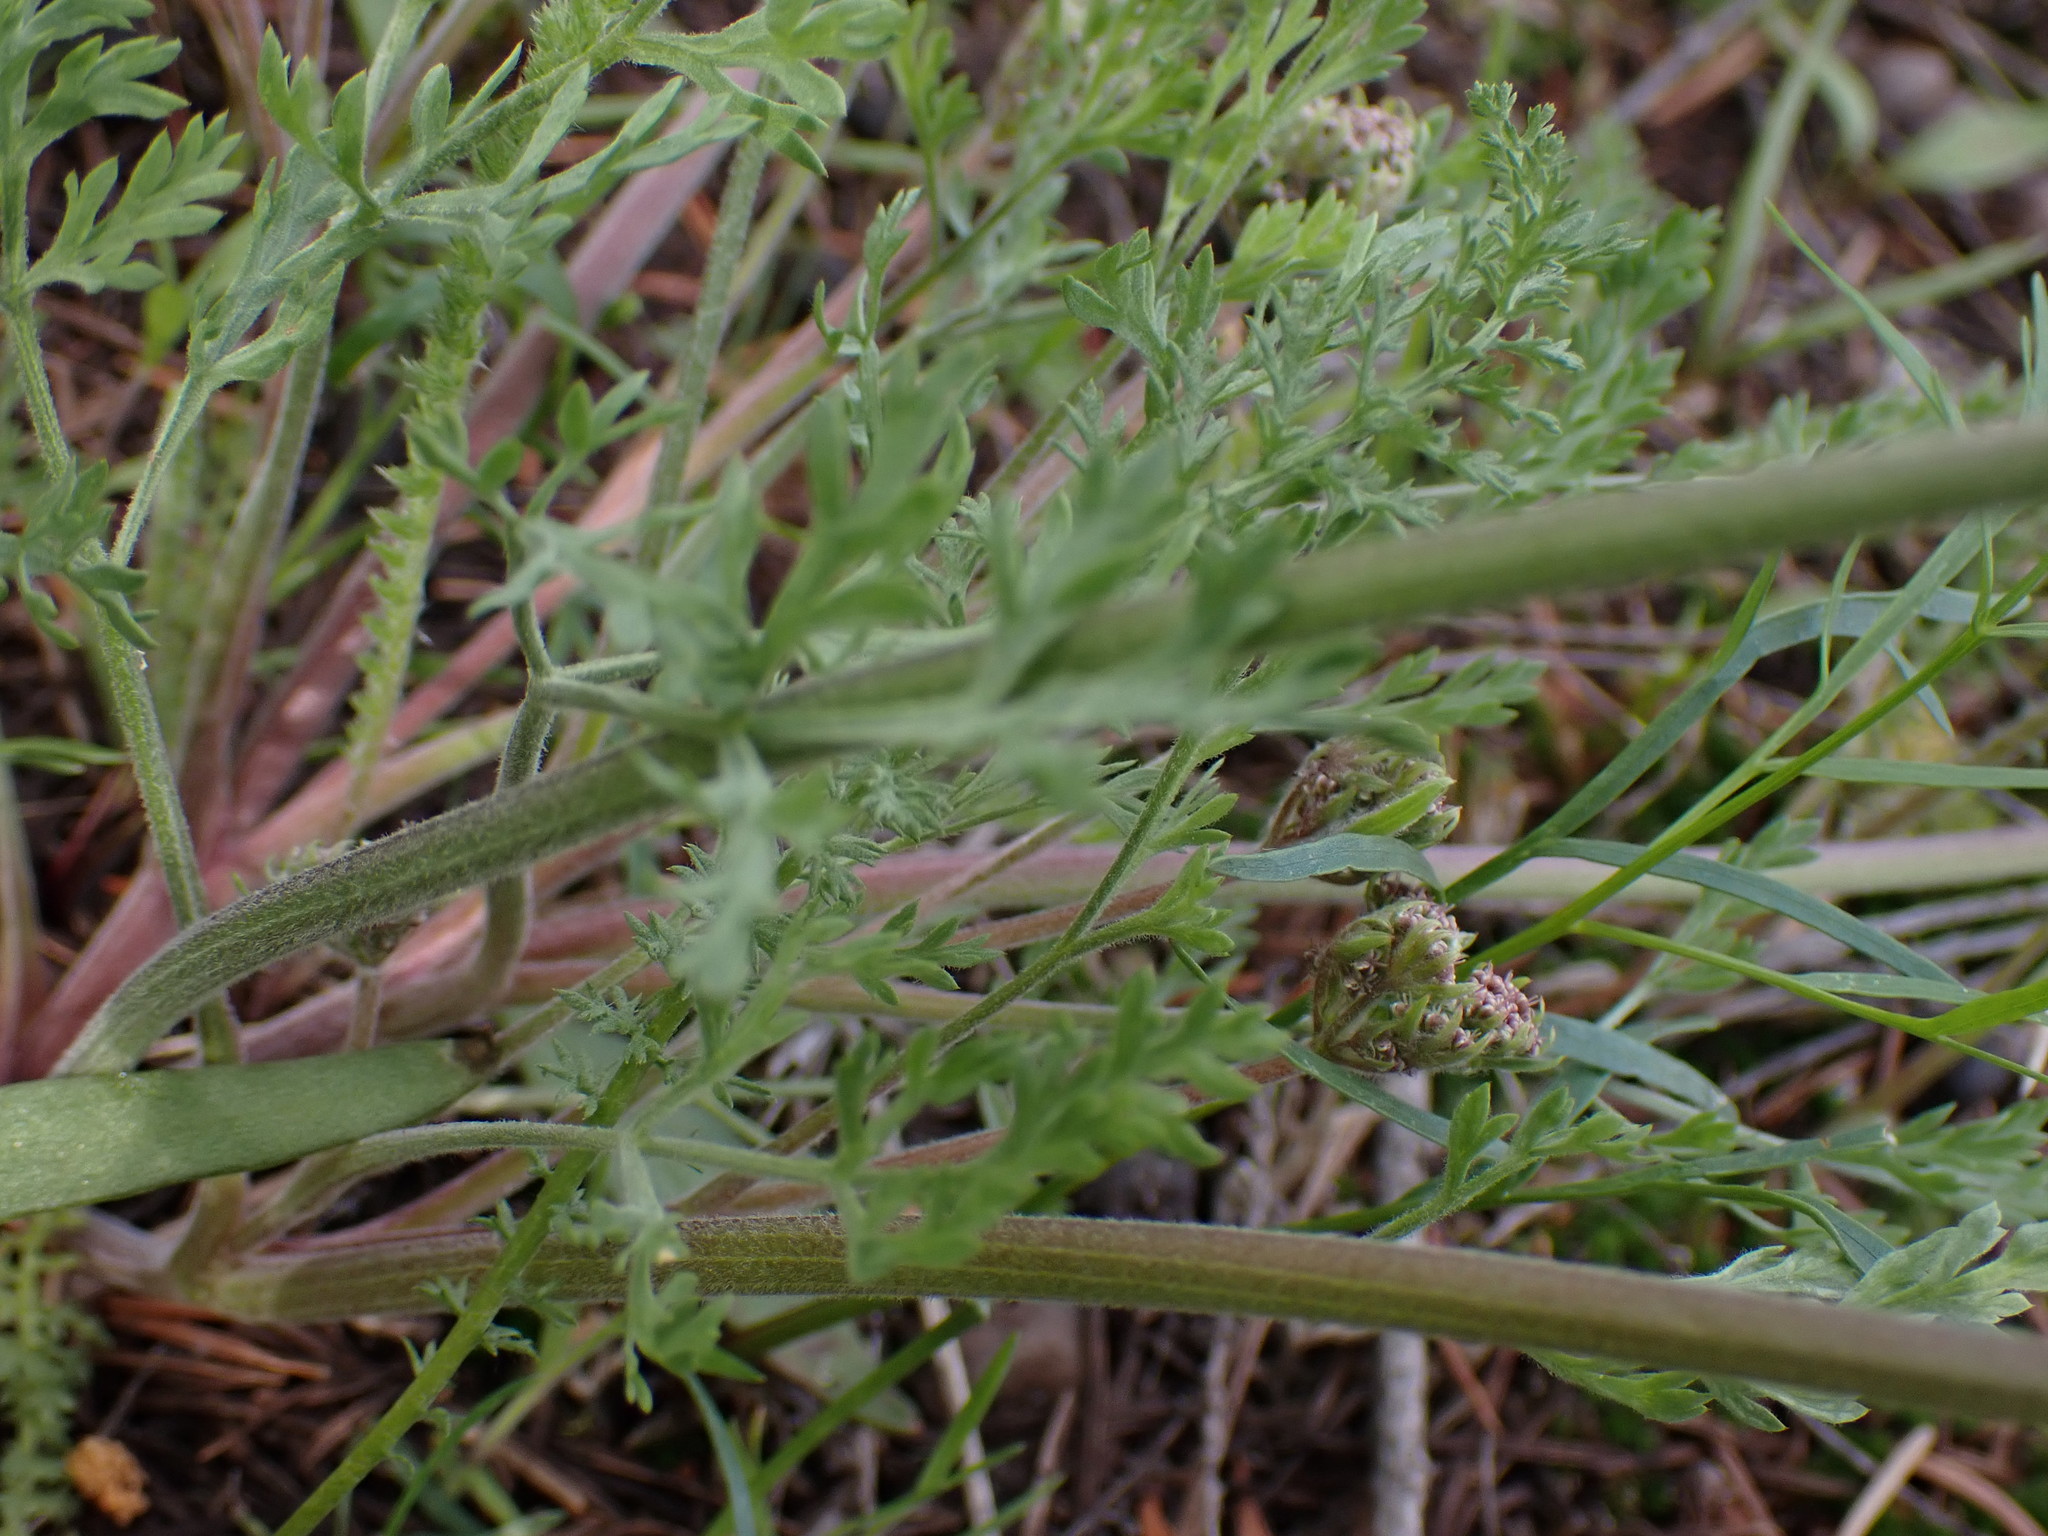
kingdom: Plantae
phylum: Tracheophyta
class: Magnoliopsida
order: Apiales
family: Apiaceae
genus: Lomatium
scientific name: Lomatium macrocarpum
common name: Big-seed biscuitroot
